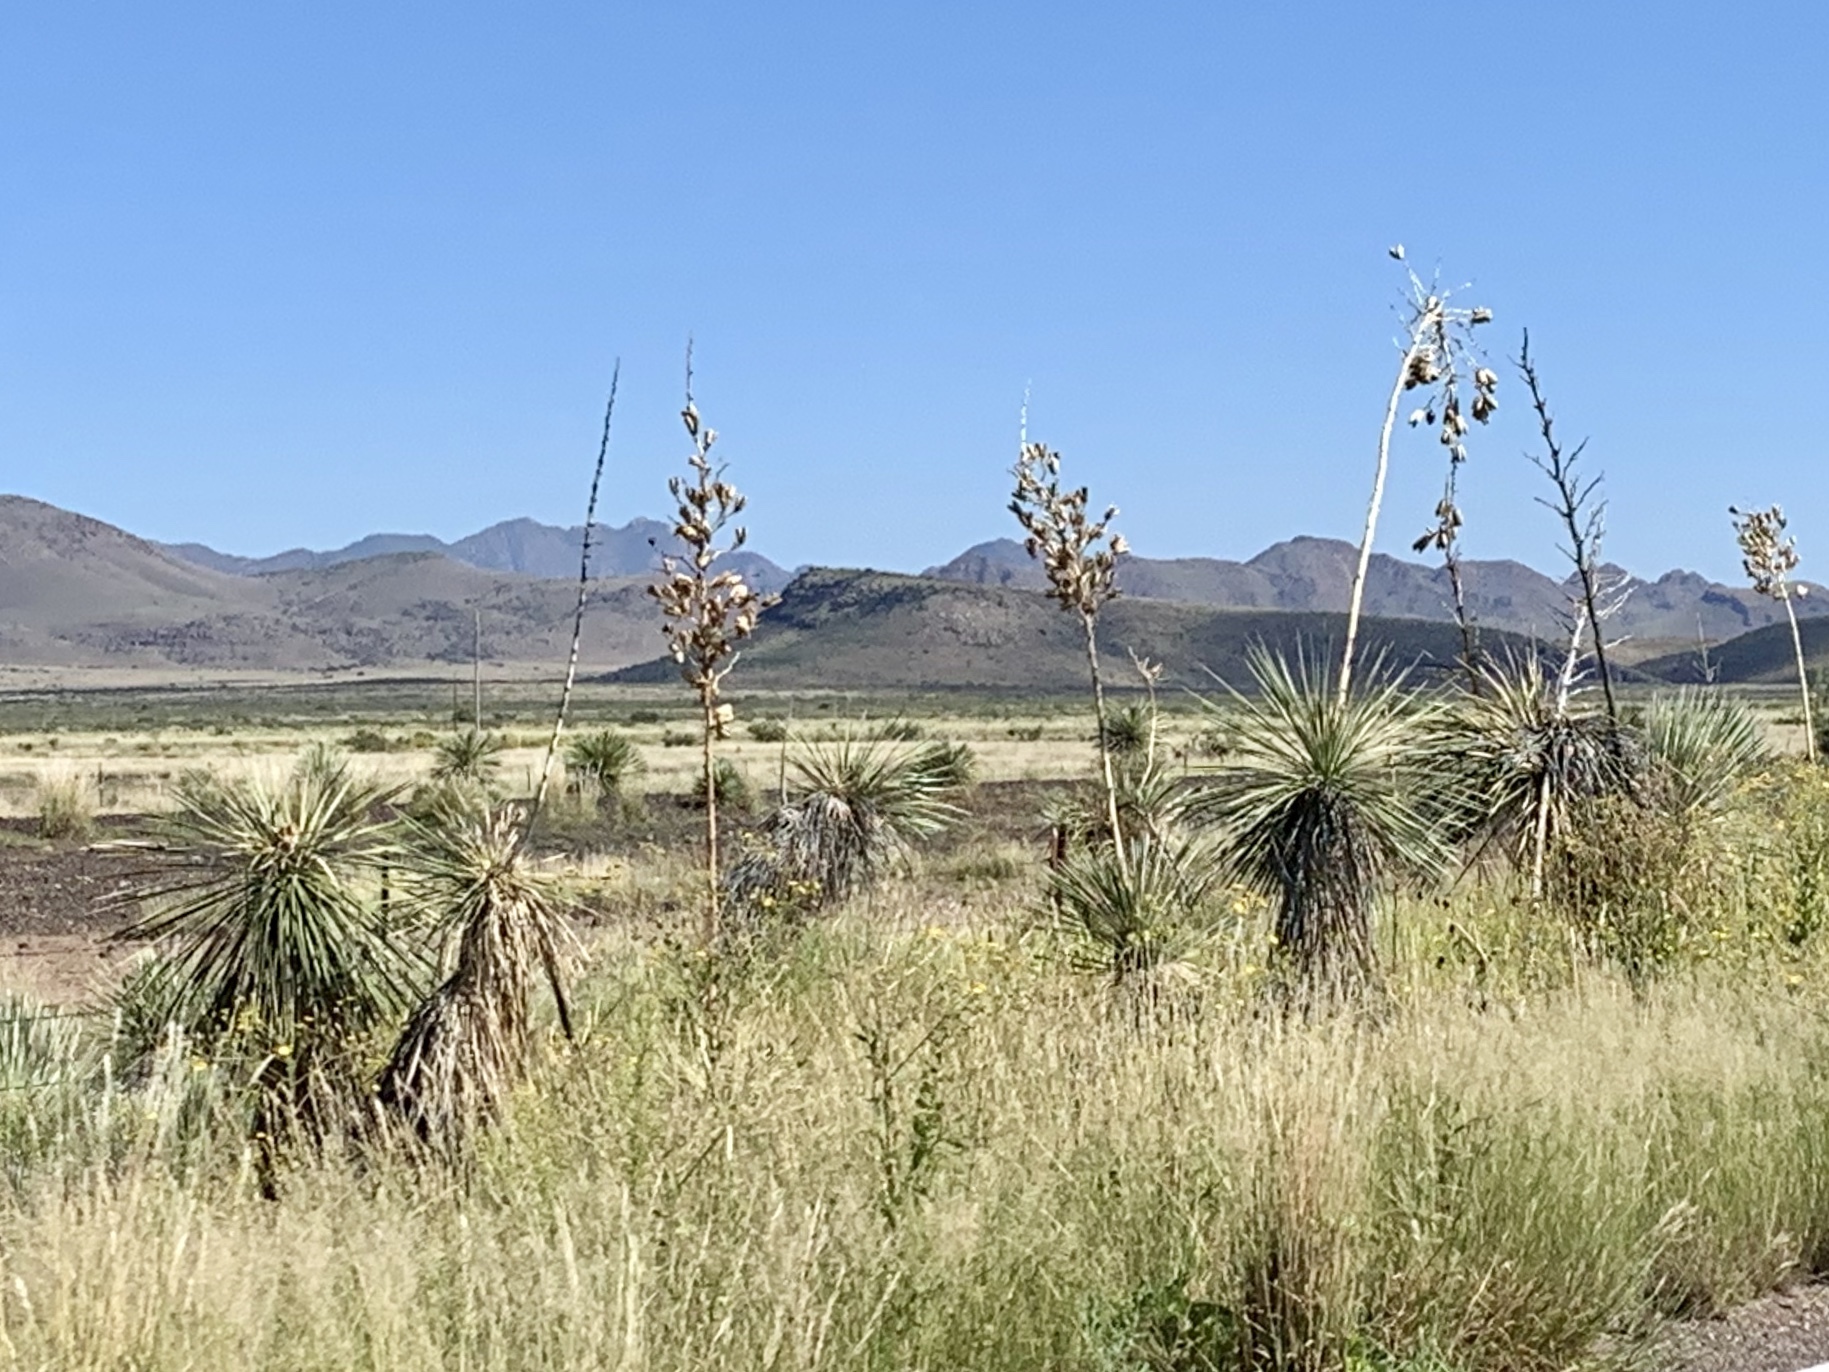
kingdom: Plantae
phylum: Tracheophyta
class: Liliopsida
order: Asparagales
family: Asparagaceae
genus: Yucca
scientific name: Yucca elata
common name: Palmella
